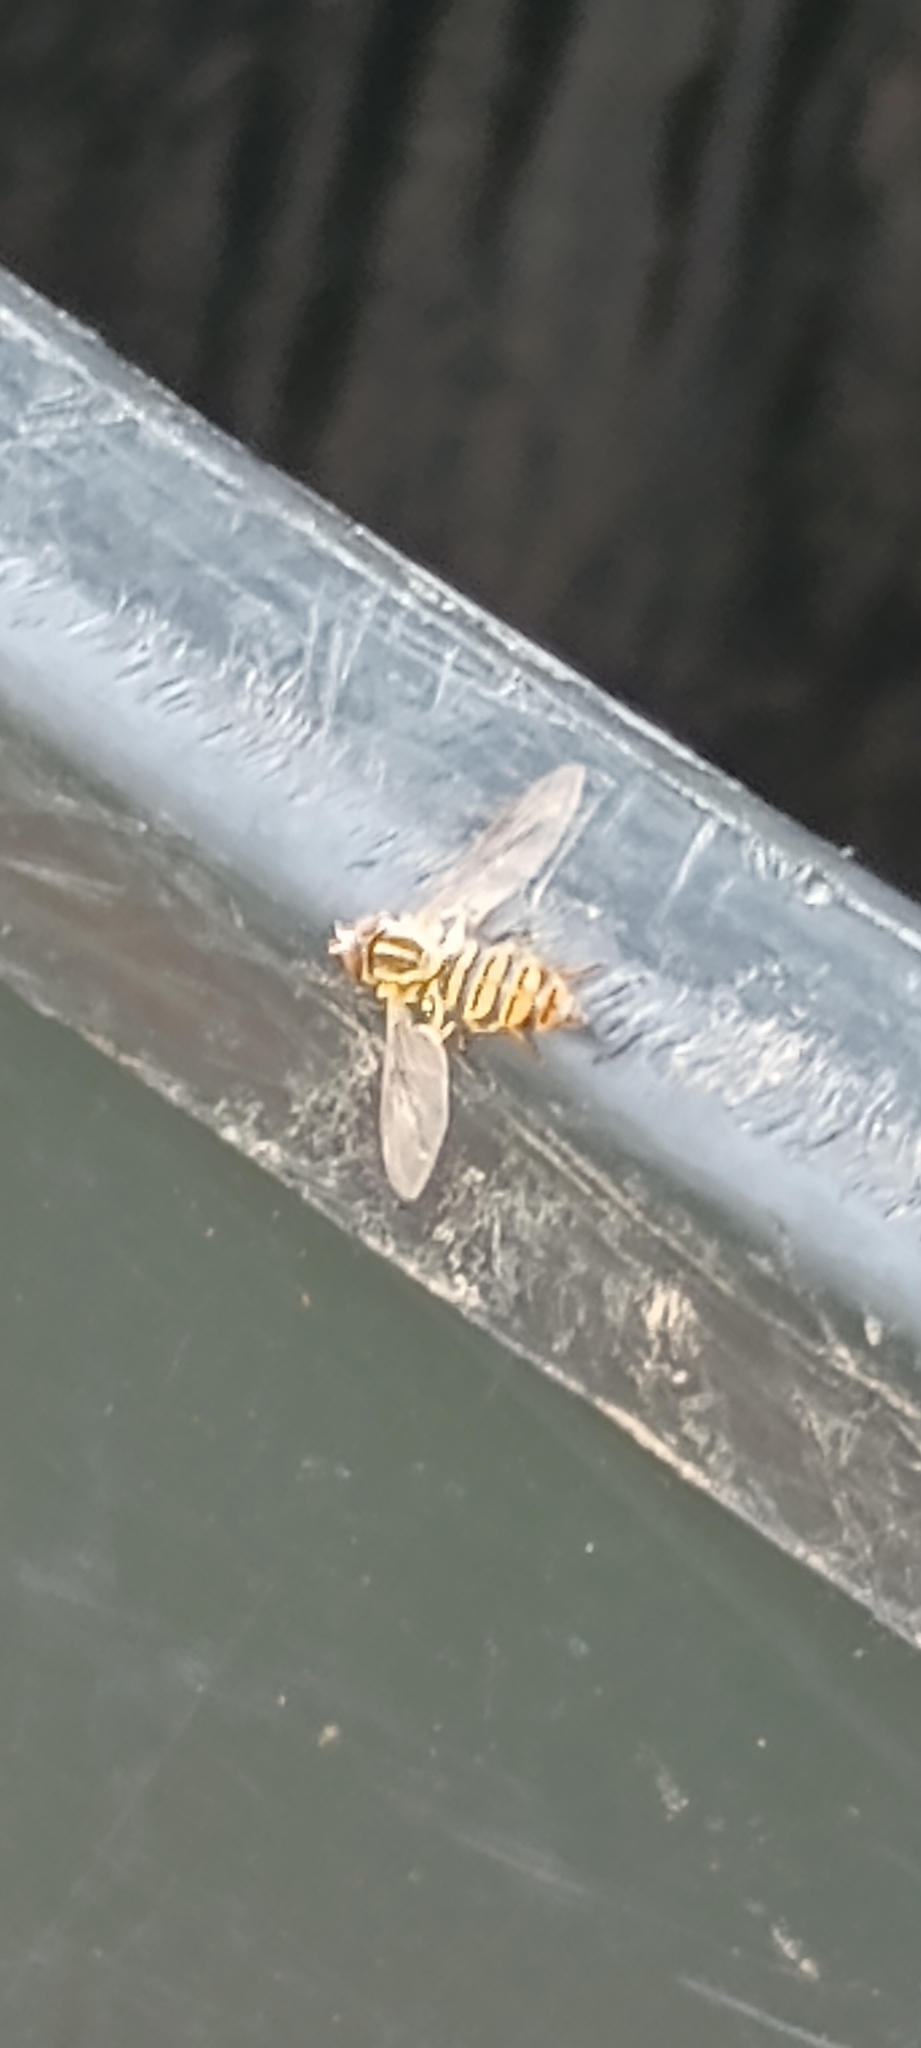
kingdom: Animalia
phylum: Arthropoda
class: Insecta
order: Diptera
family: Syrphidae
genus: Toxomerus
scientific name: Toxomerus politus
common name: Maize calligrapher
